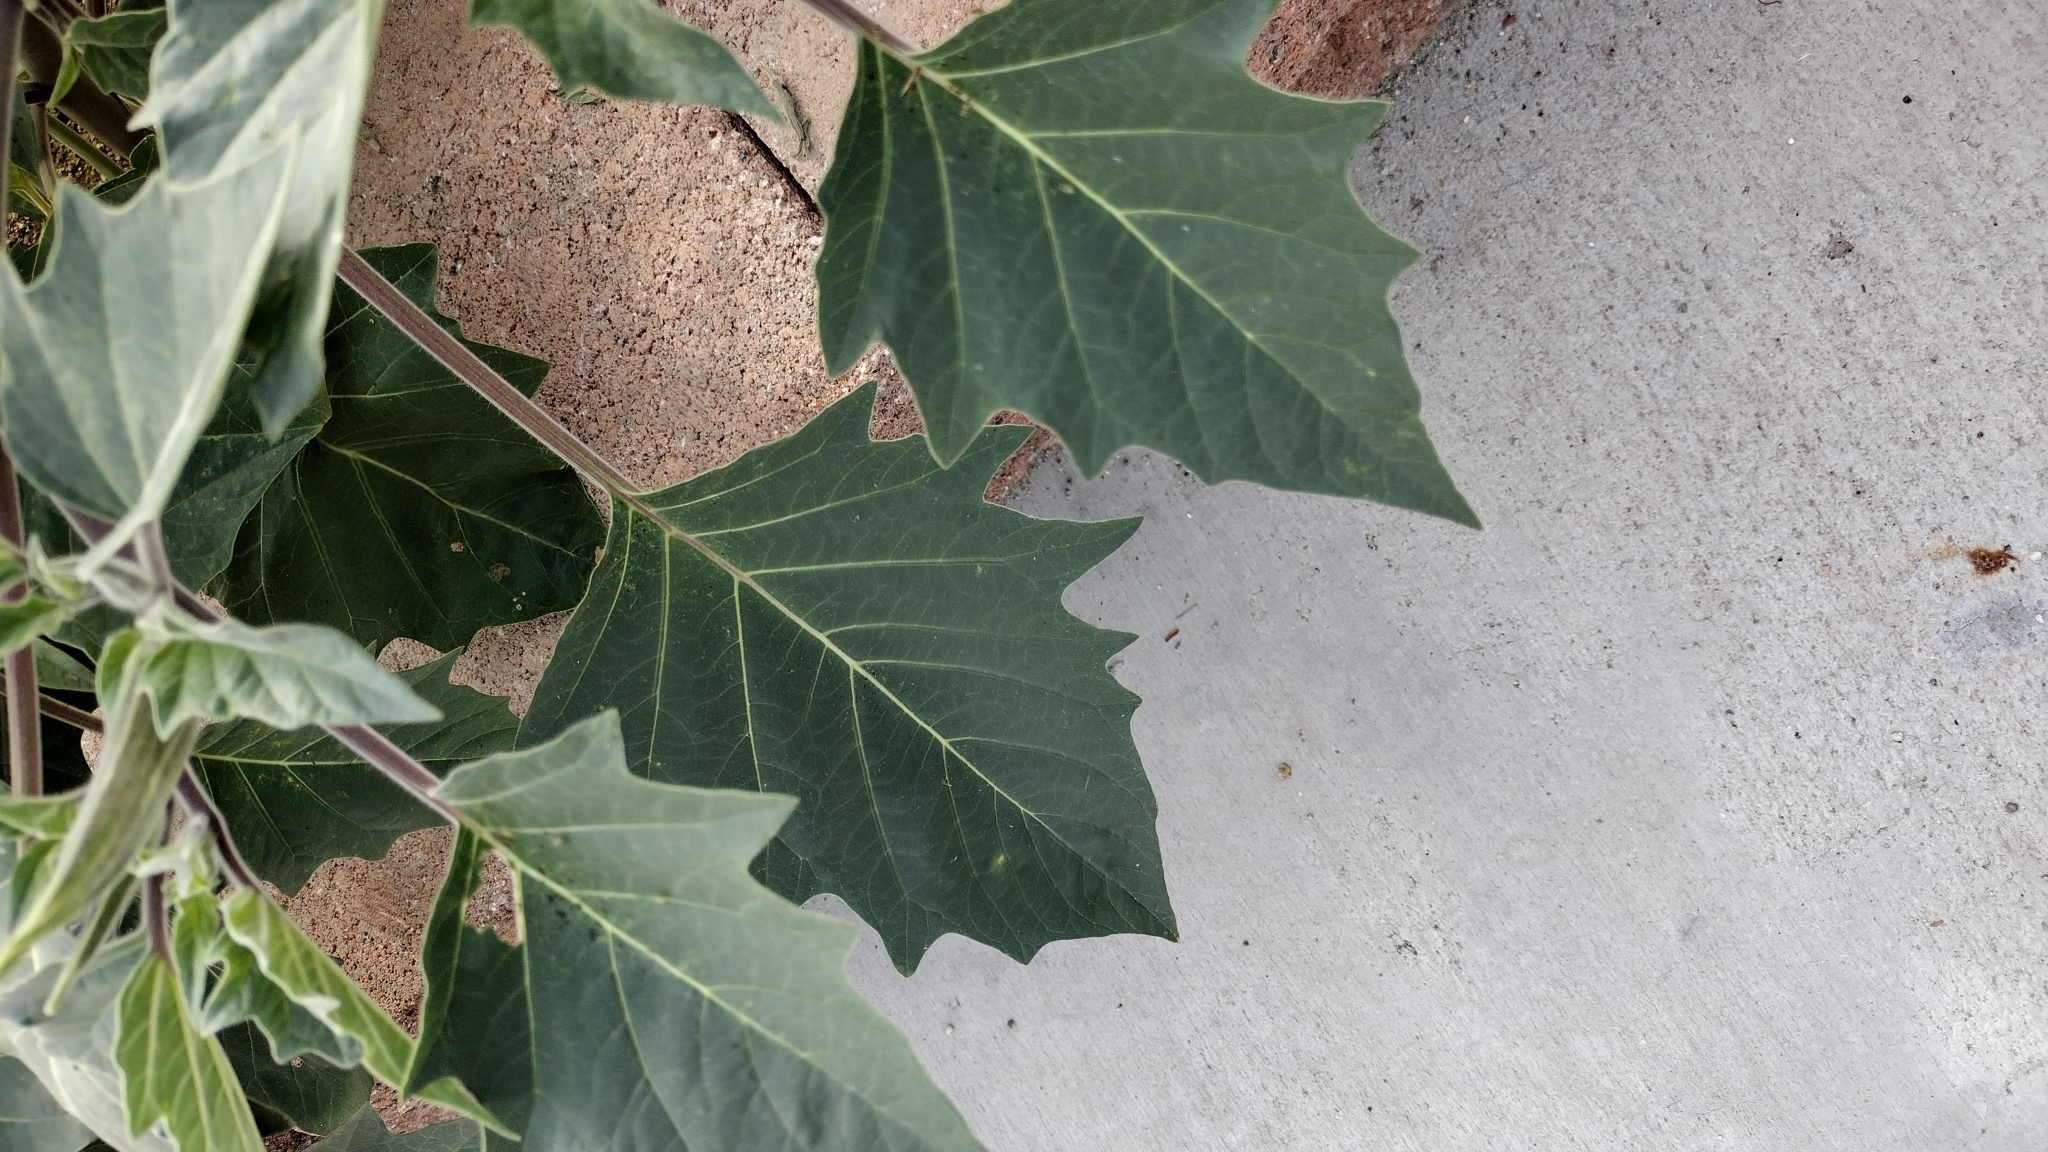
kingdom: Plantae
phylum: Tracheophyta
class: Magnoliopsida
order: Solanales
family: Solanaceae
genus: Datura
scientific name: Datura wrightii
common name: Sacred thorn-apple
